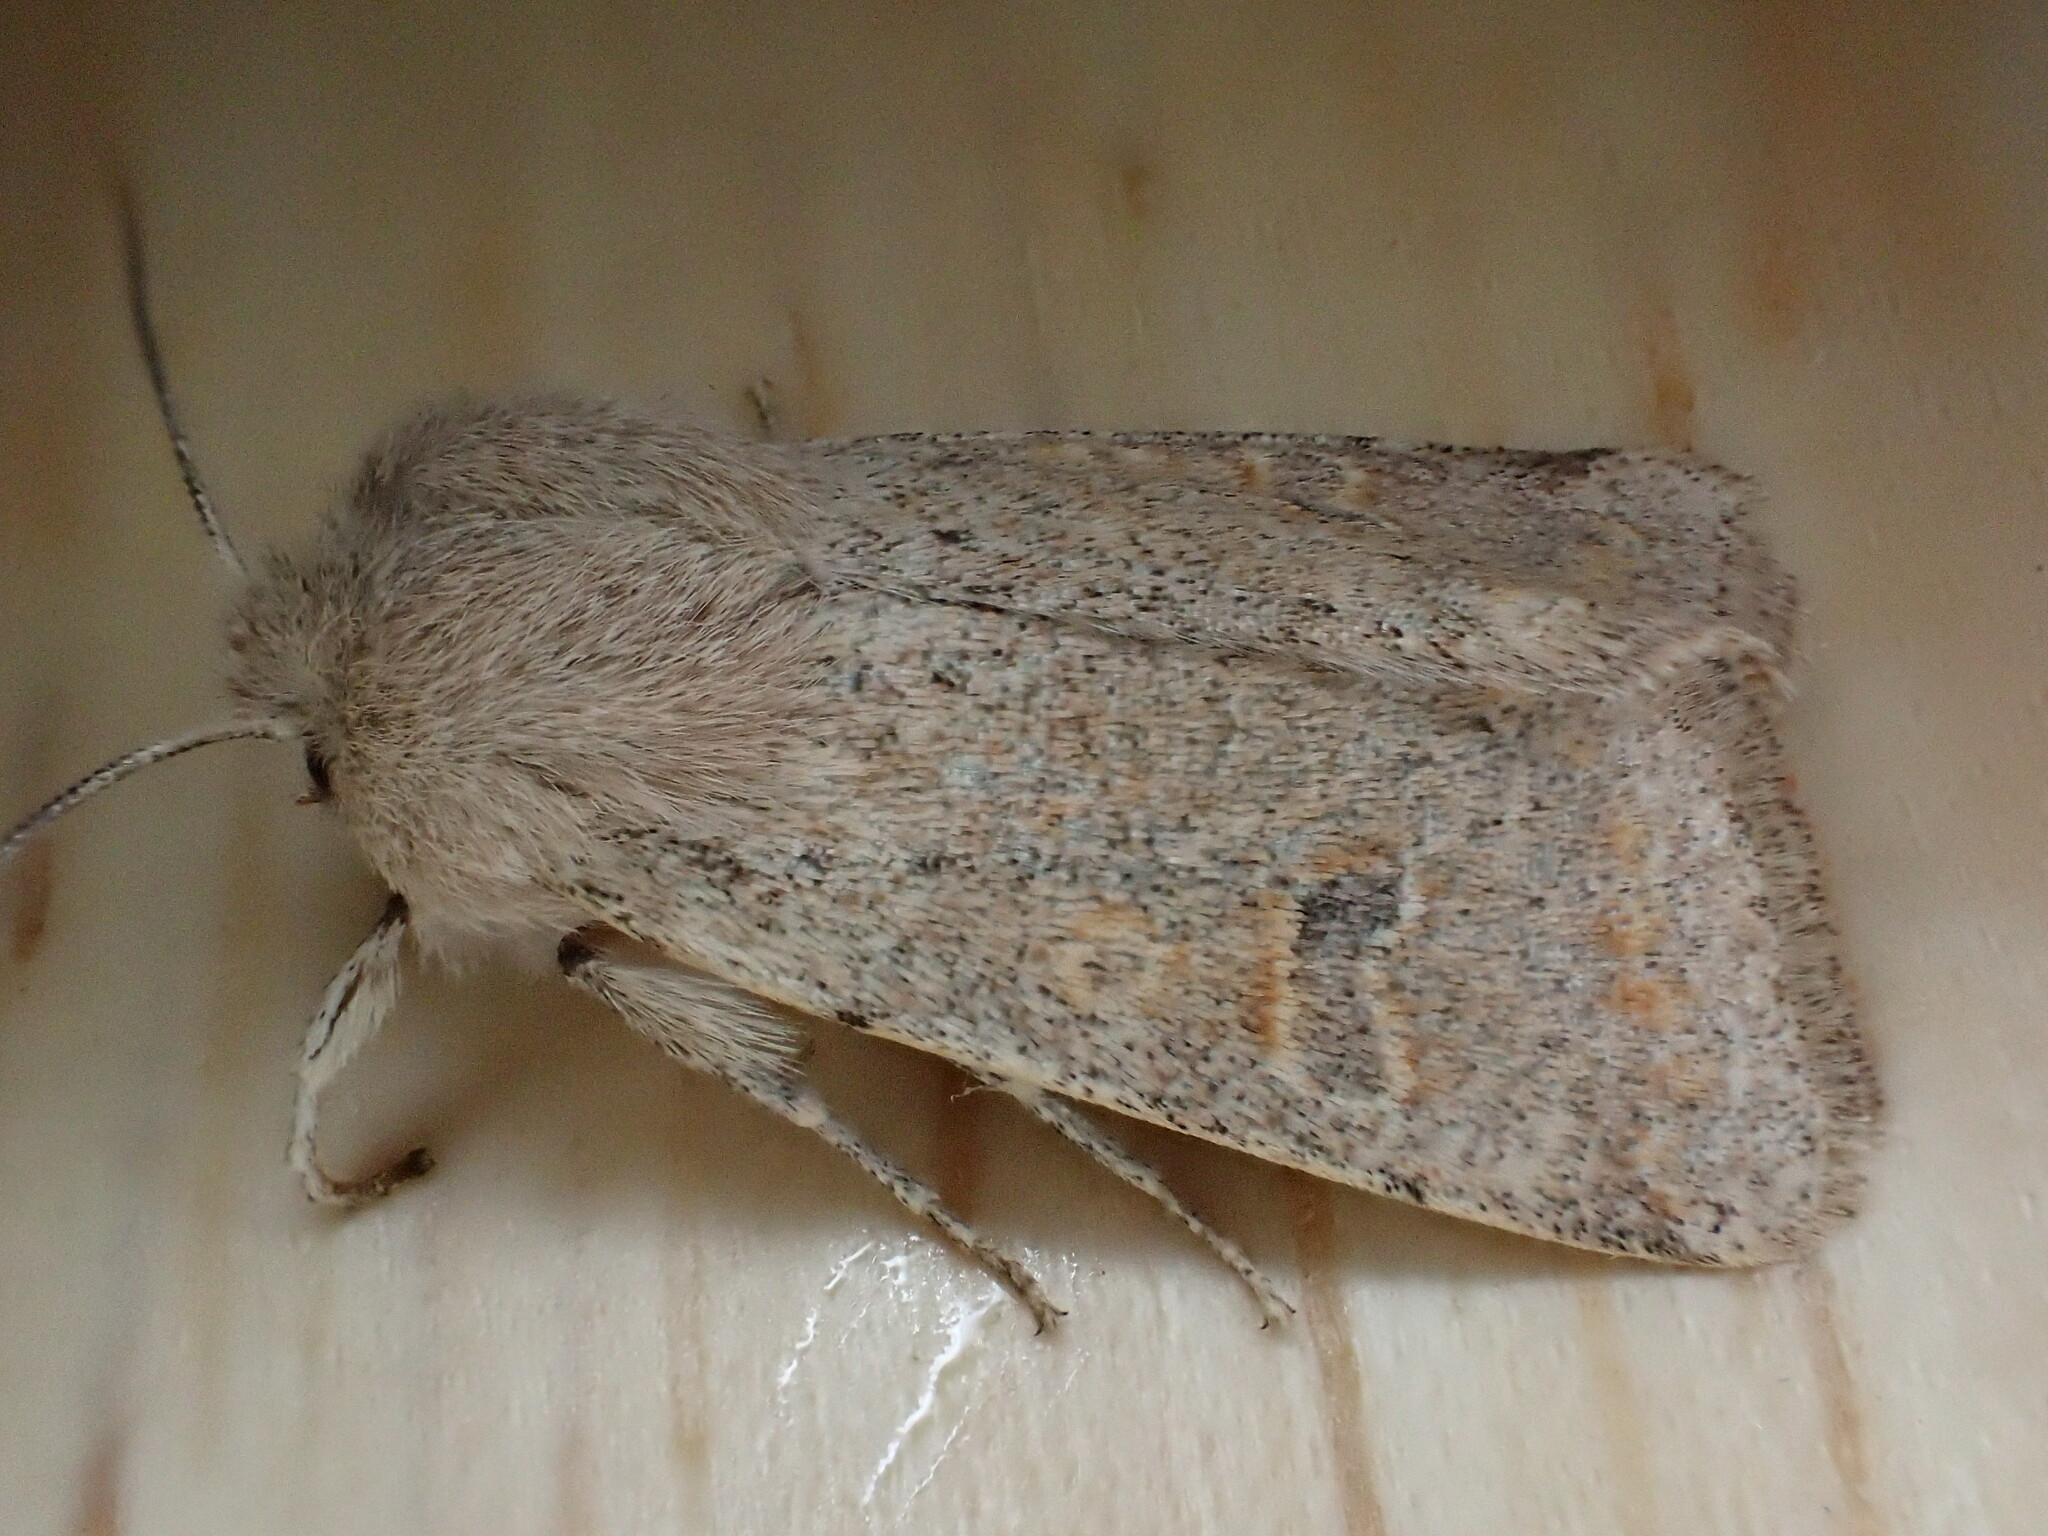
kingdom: Animalia
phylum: Arthropoda
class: Insecta
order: Lepidoptera
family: Noctuidae
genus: Orthosia
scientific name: Orthosia cruda
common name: Small quaker
